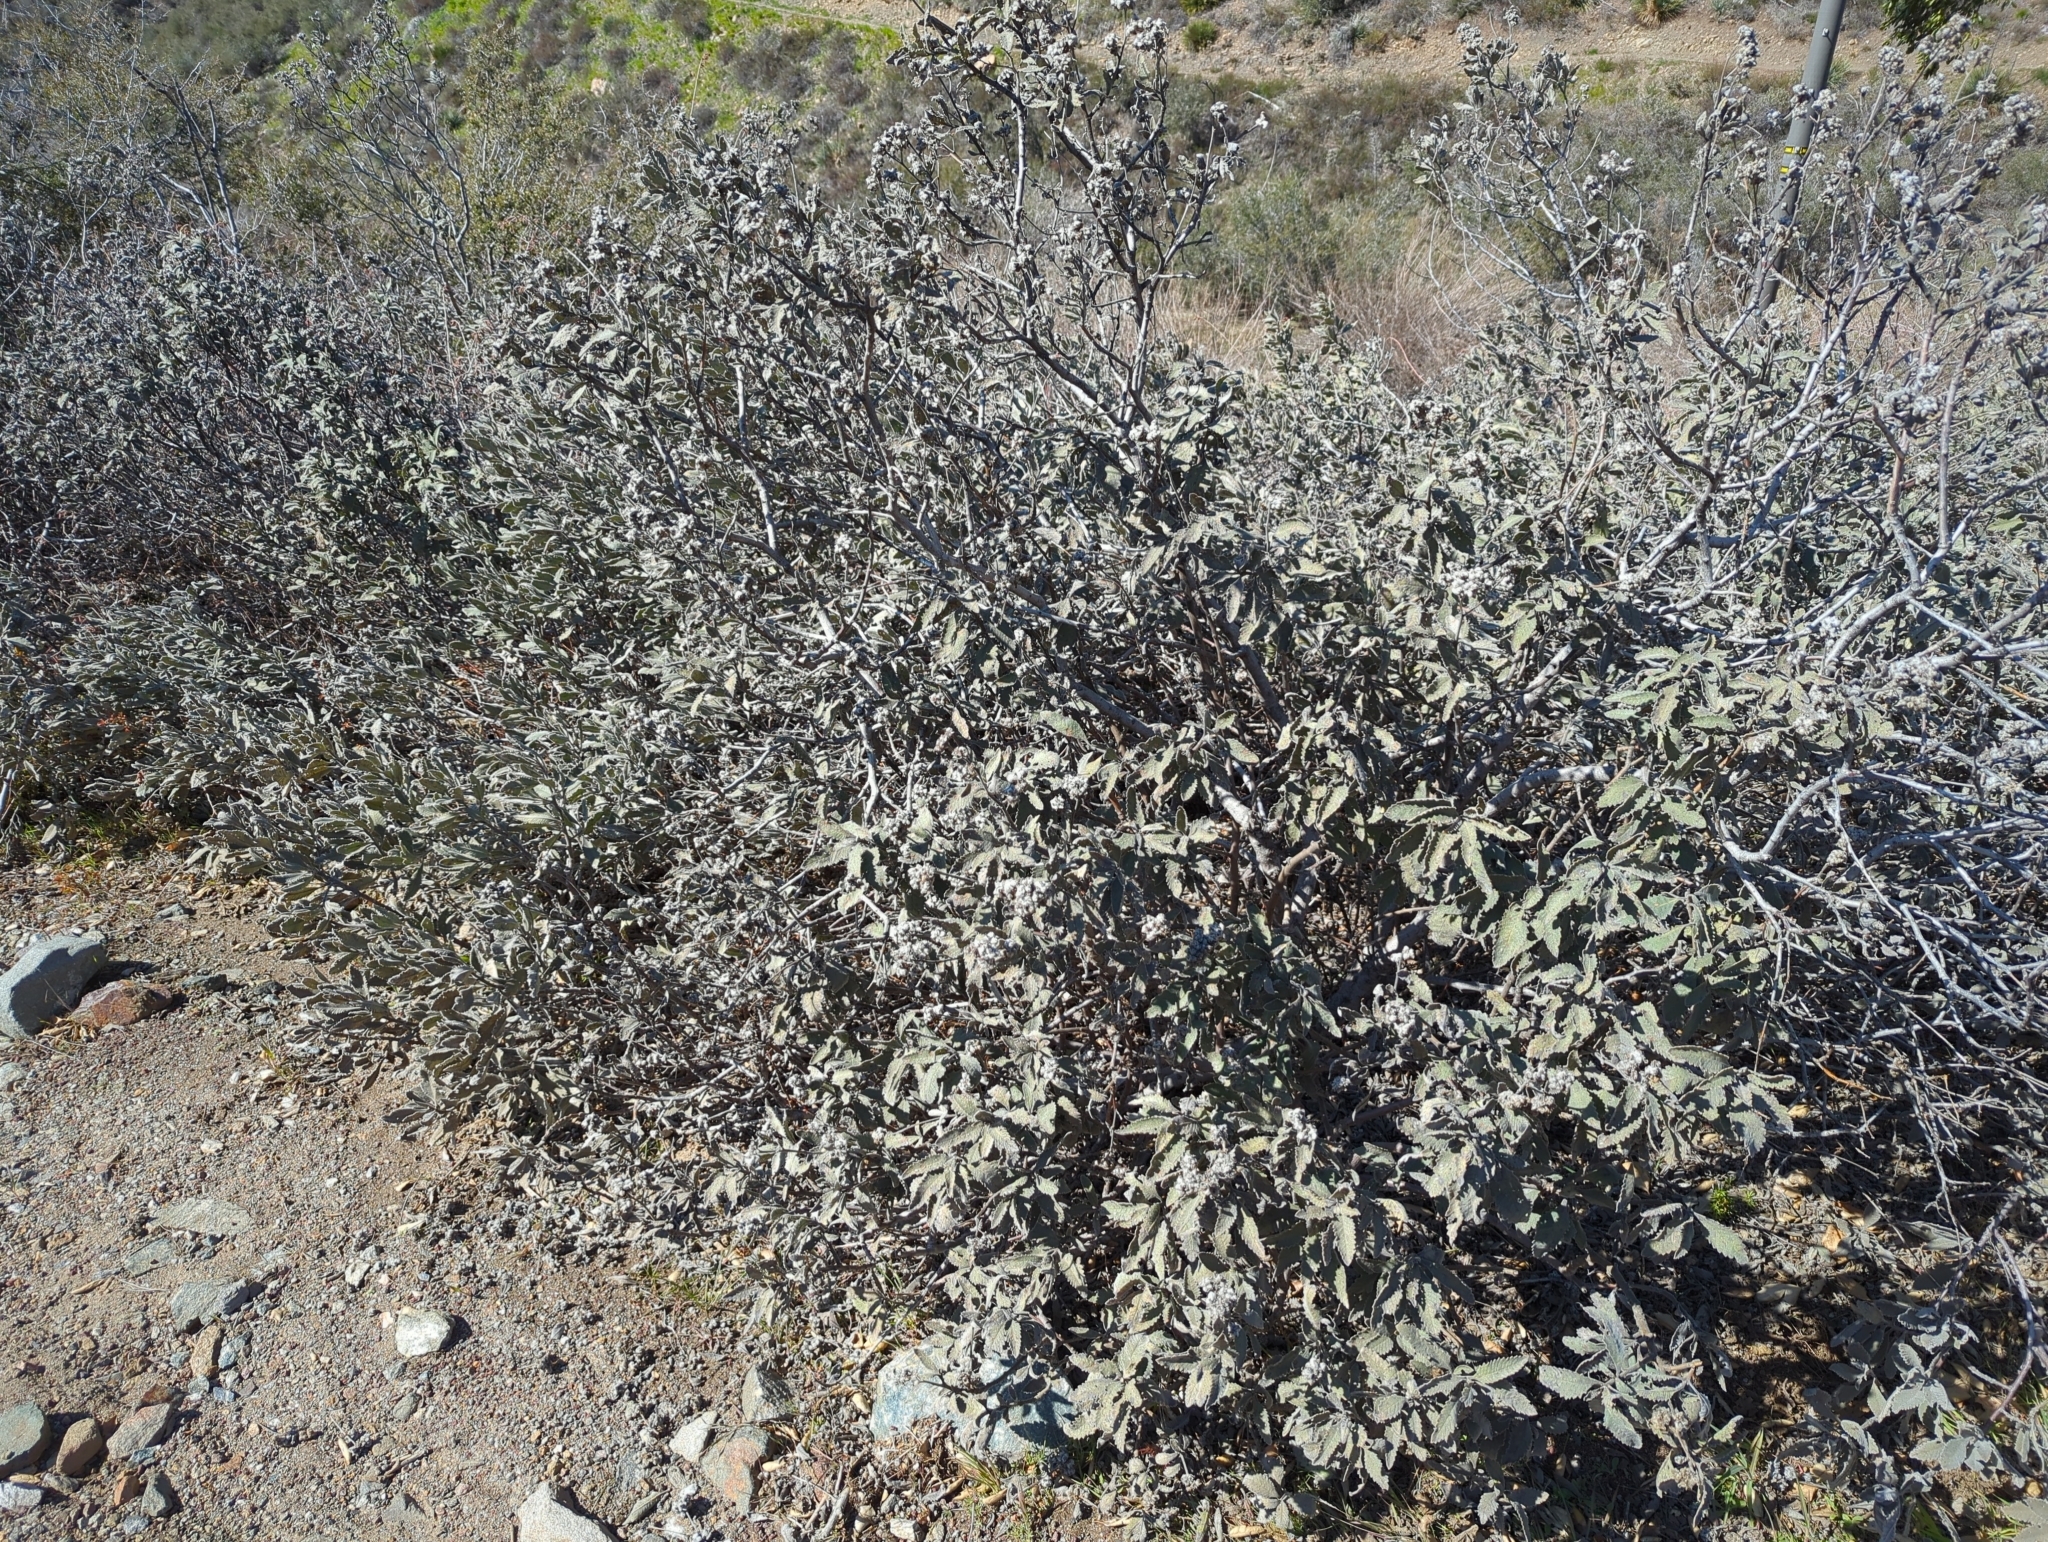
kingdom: Plantae
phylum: Tracheophyta
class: Magnoliopsida
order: Boraginales
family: Namaceae
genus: Eriodictyon
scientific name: Eriodictyon crassifolium
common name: Thick-leaf yerba-santa
